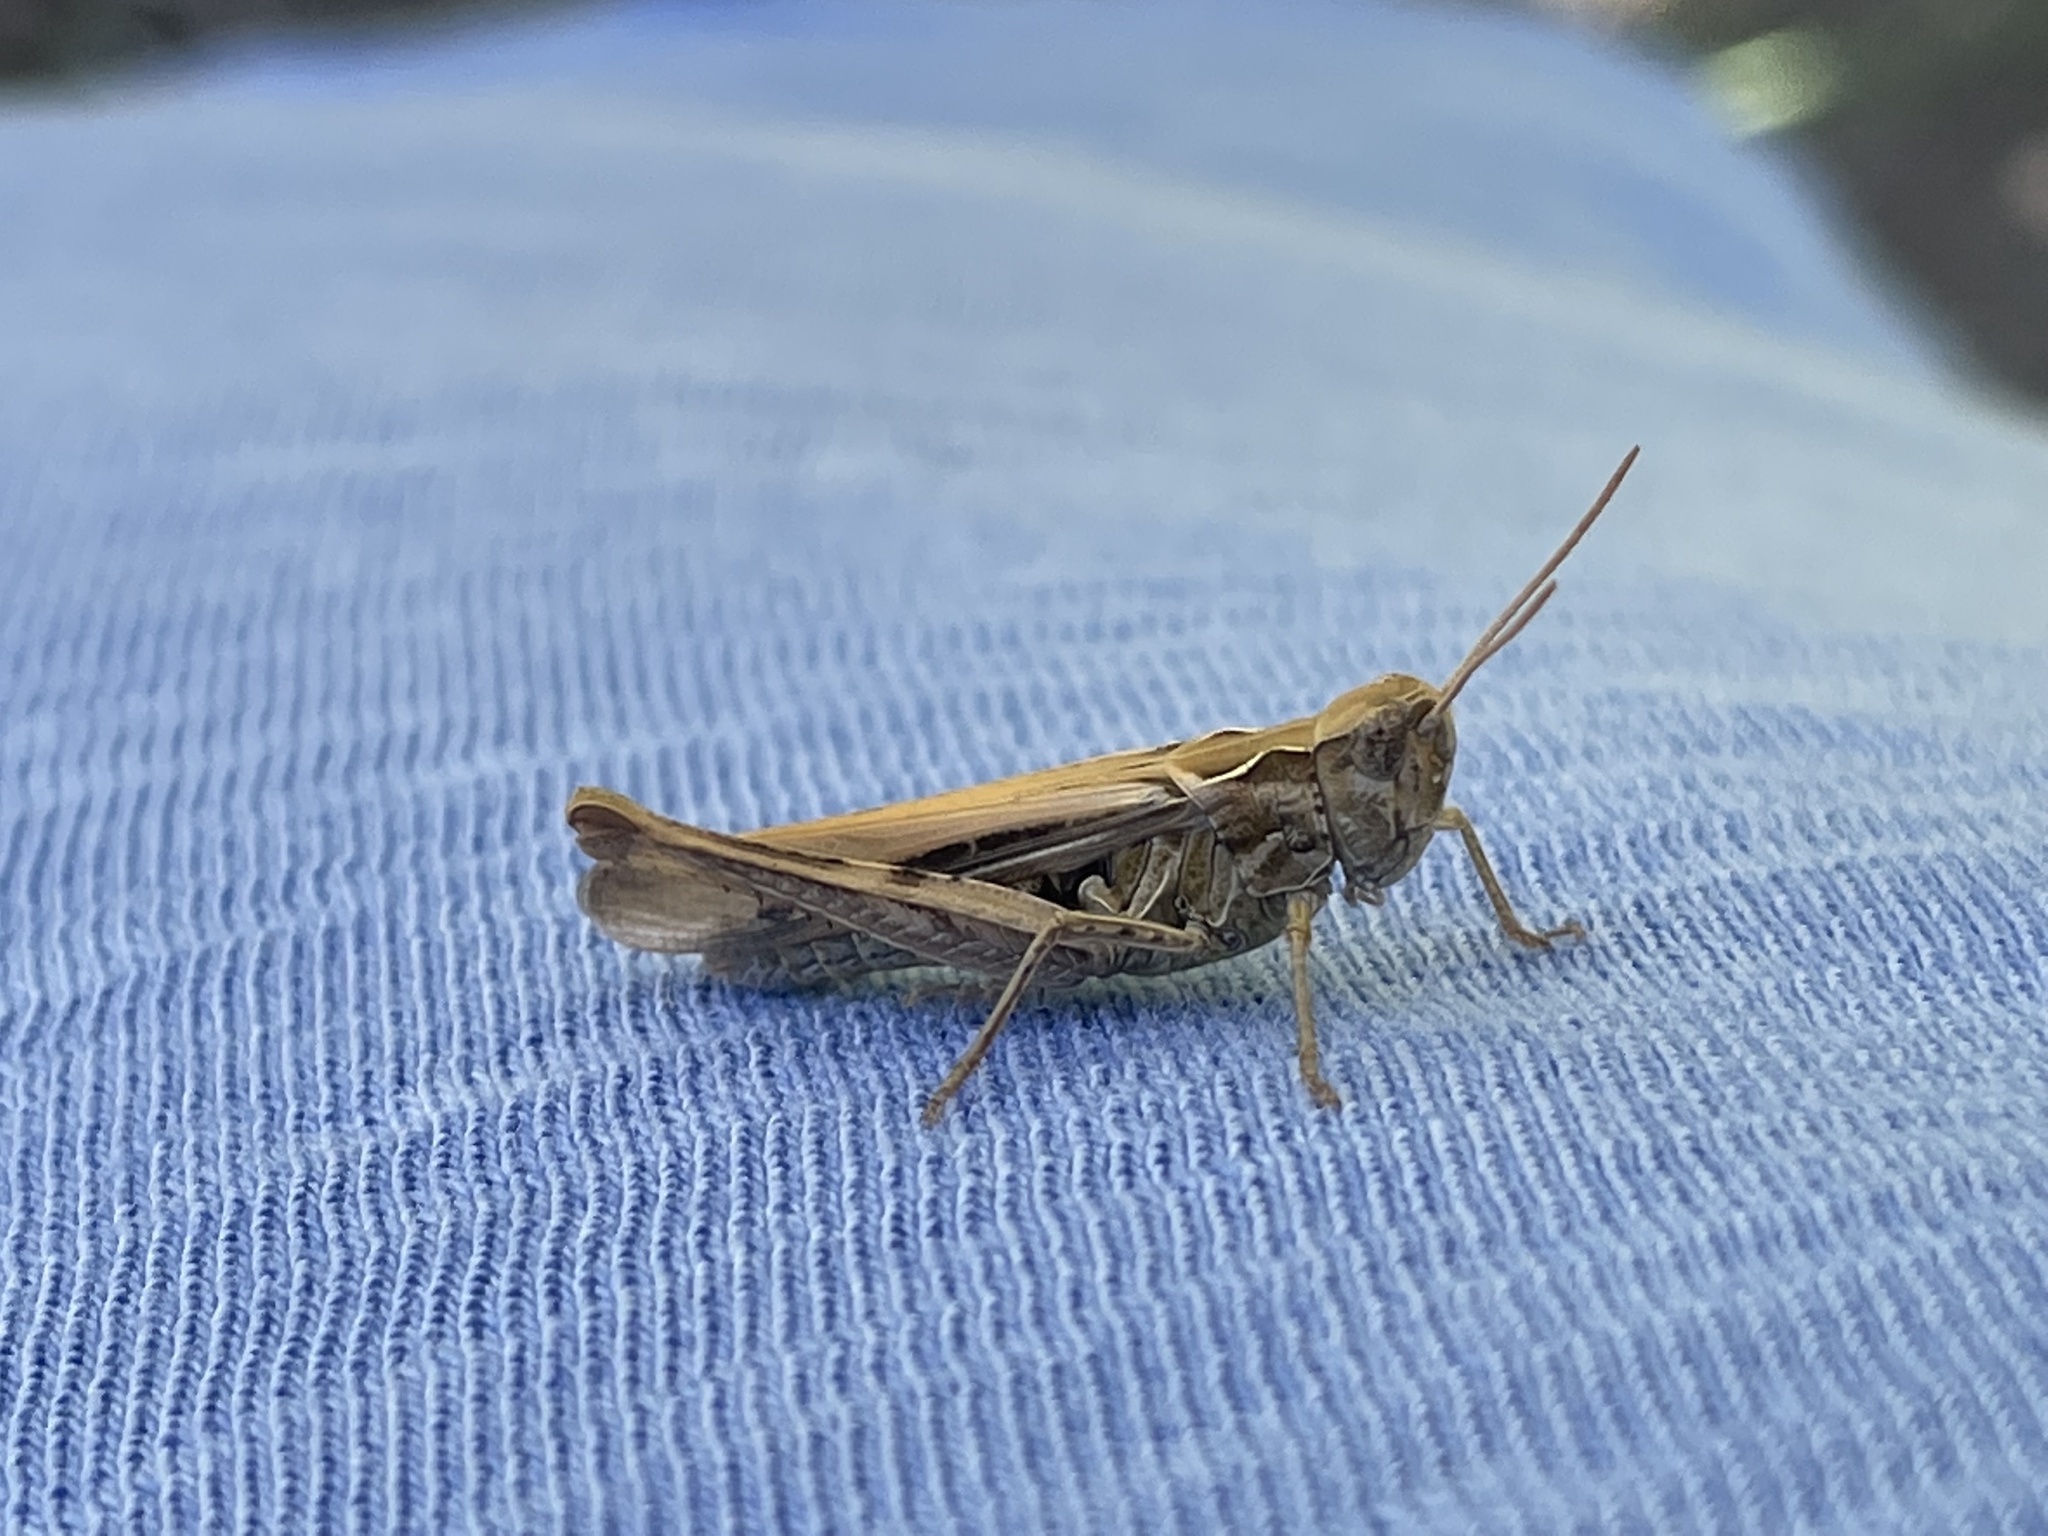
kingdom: Animalia
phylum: Arthropoda
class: Insecta
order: Orthoptera
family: Acrididae
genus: Chorthippus
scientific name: Chorthippus brunneus
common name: Field grasshopper
